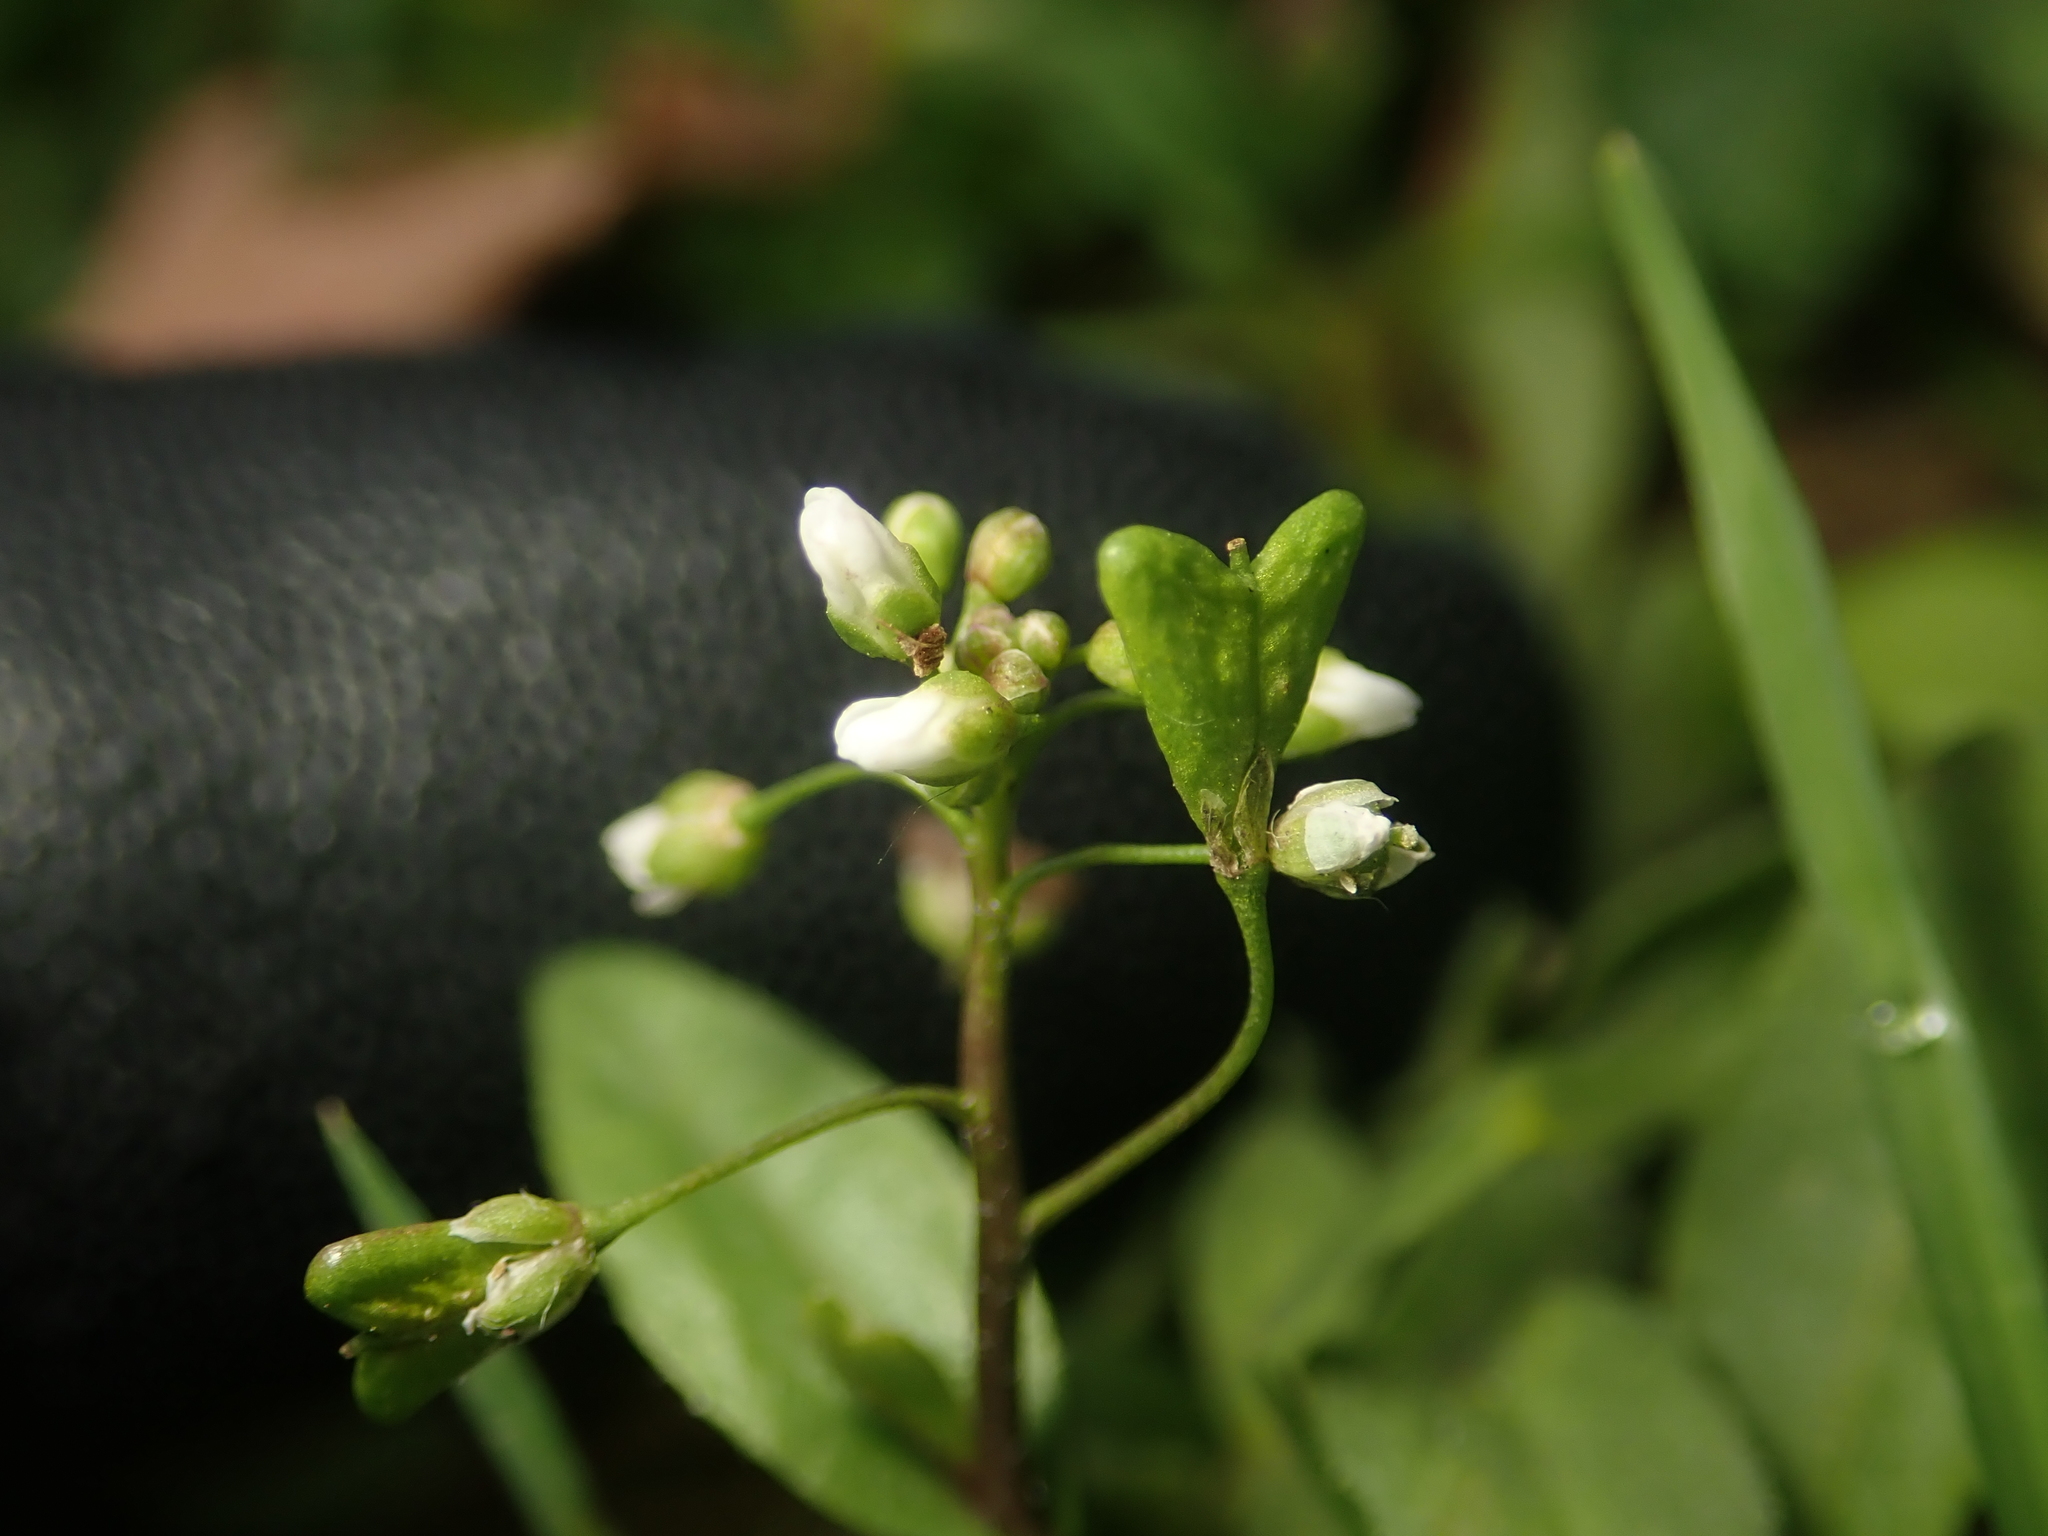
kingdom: Plantae
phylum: Tracheophyta
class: Magnoliopsida
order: Brassicales
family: Brassicaceae
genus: Capsella
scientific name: Capsella bursa-pastoris
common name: Shepherd's purse
